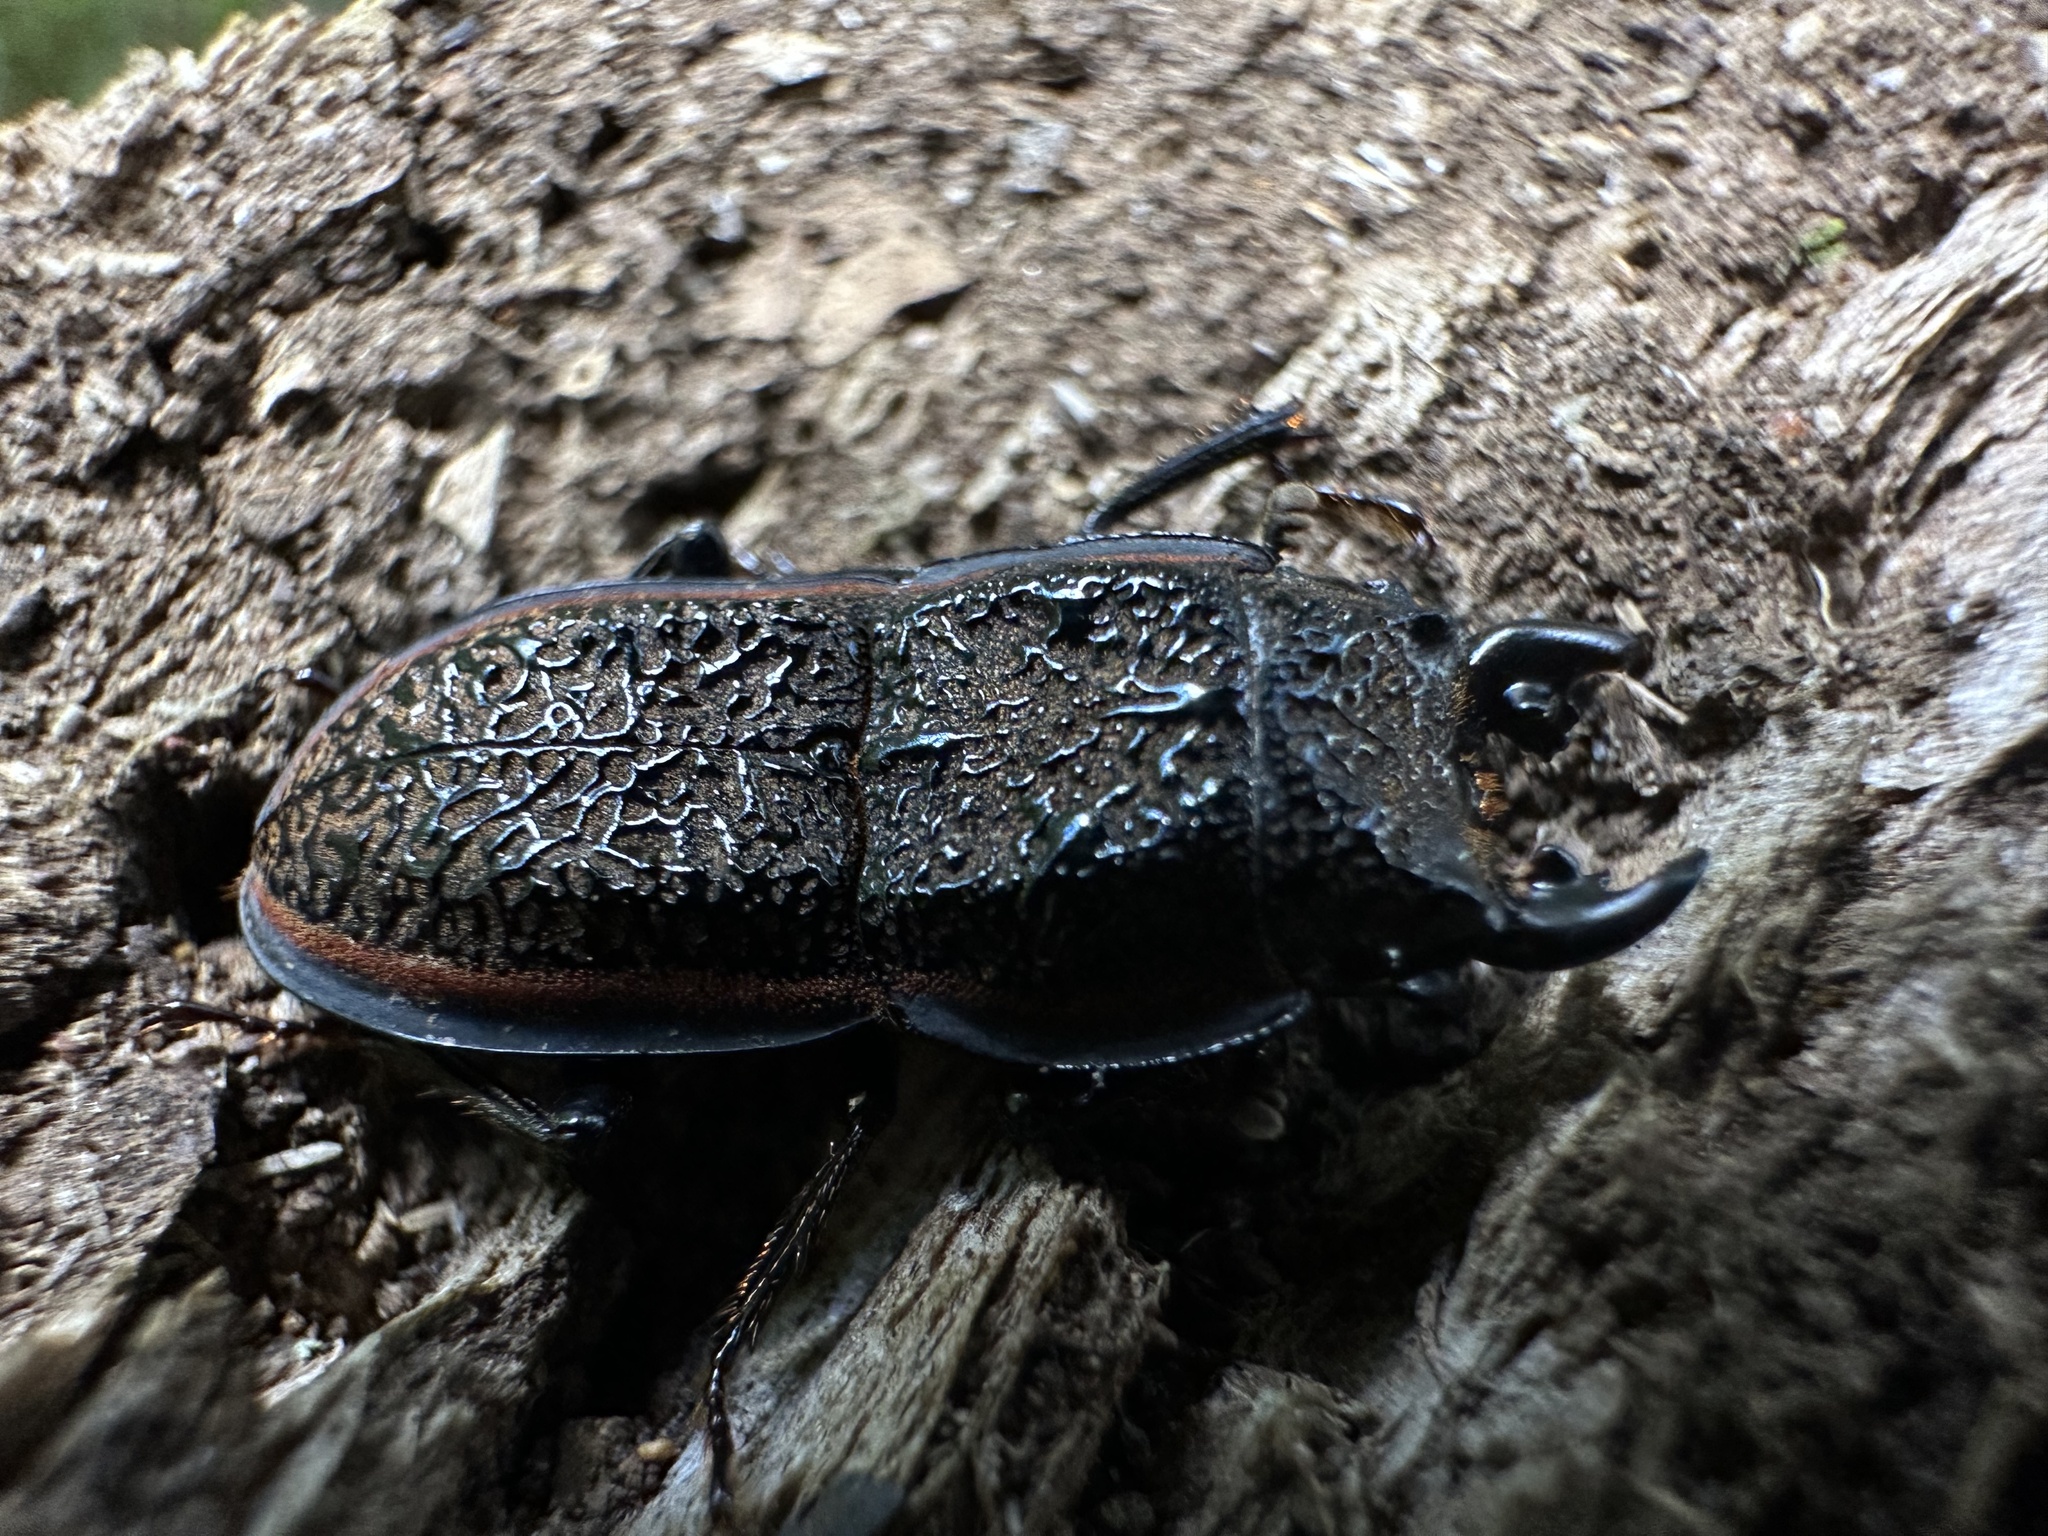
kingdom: Animalia
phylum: Arthropoda
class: Insecta
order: Coleoptera
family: Lucanidae
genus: Erichius
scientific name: Erichius caelatus
